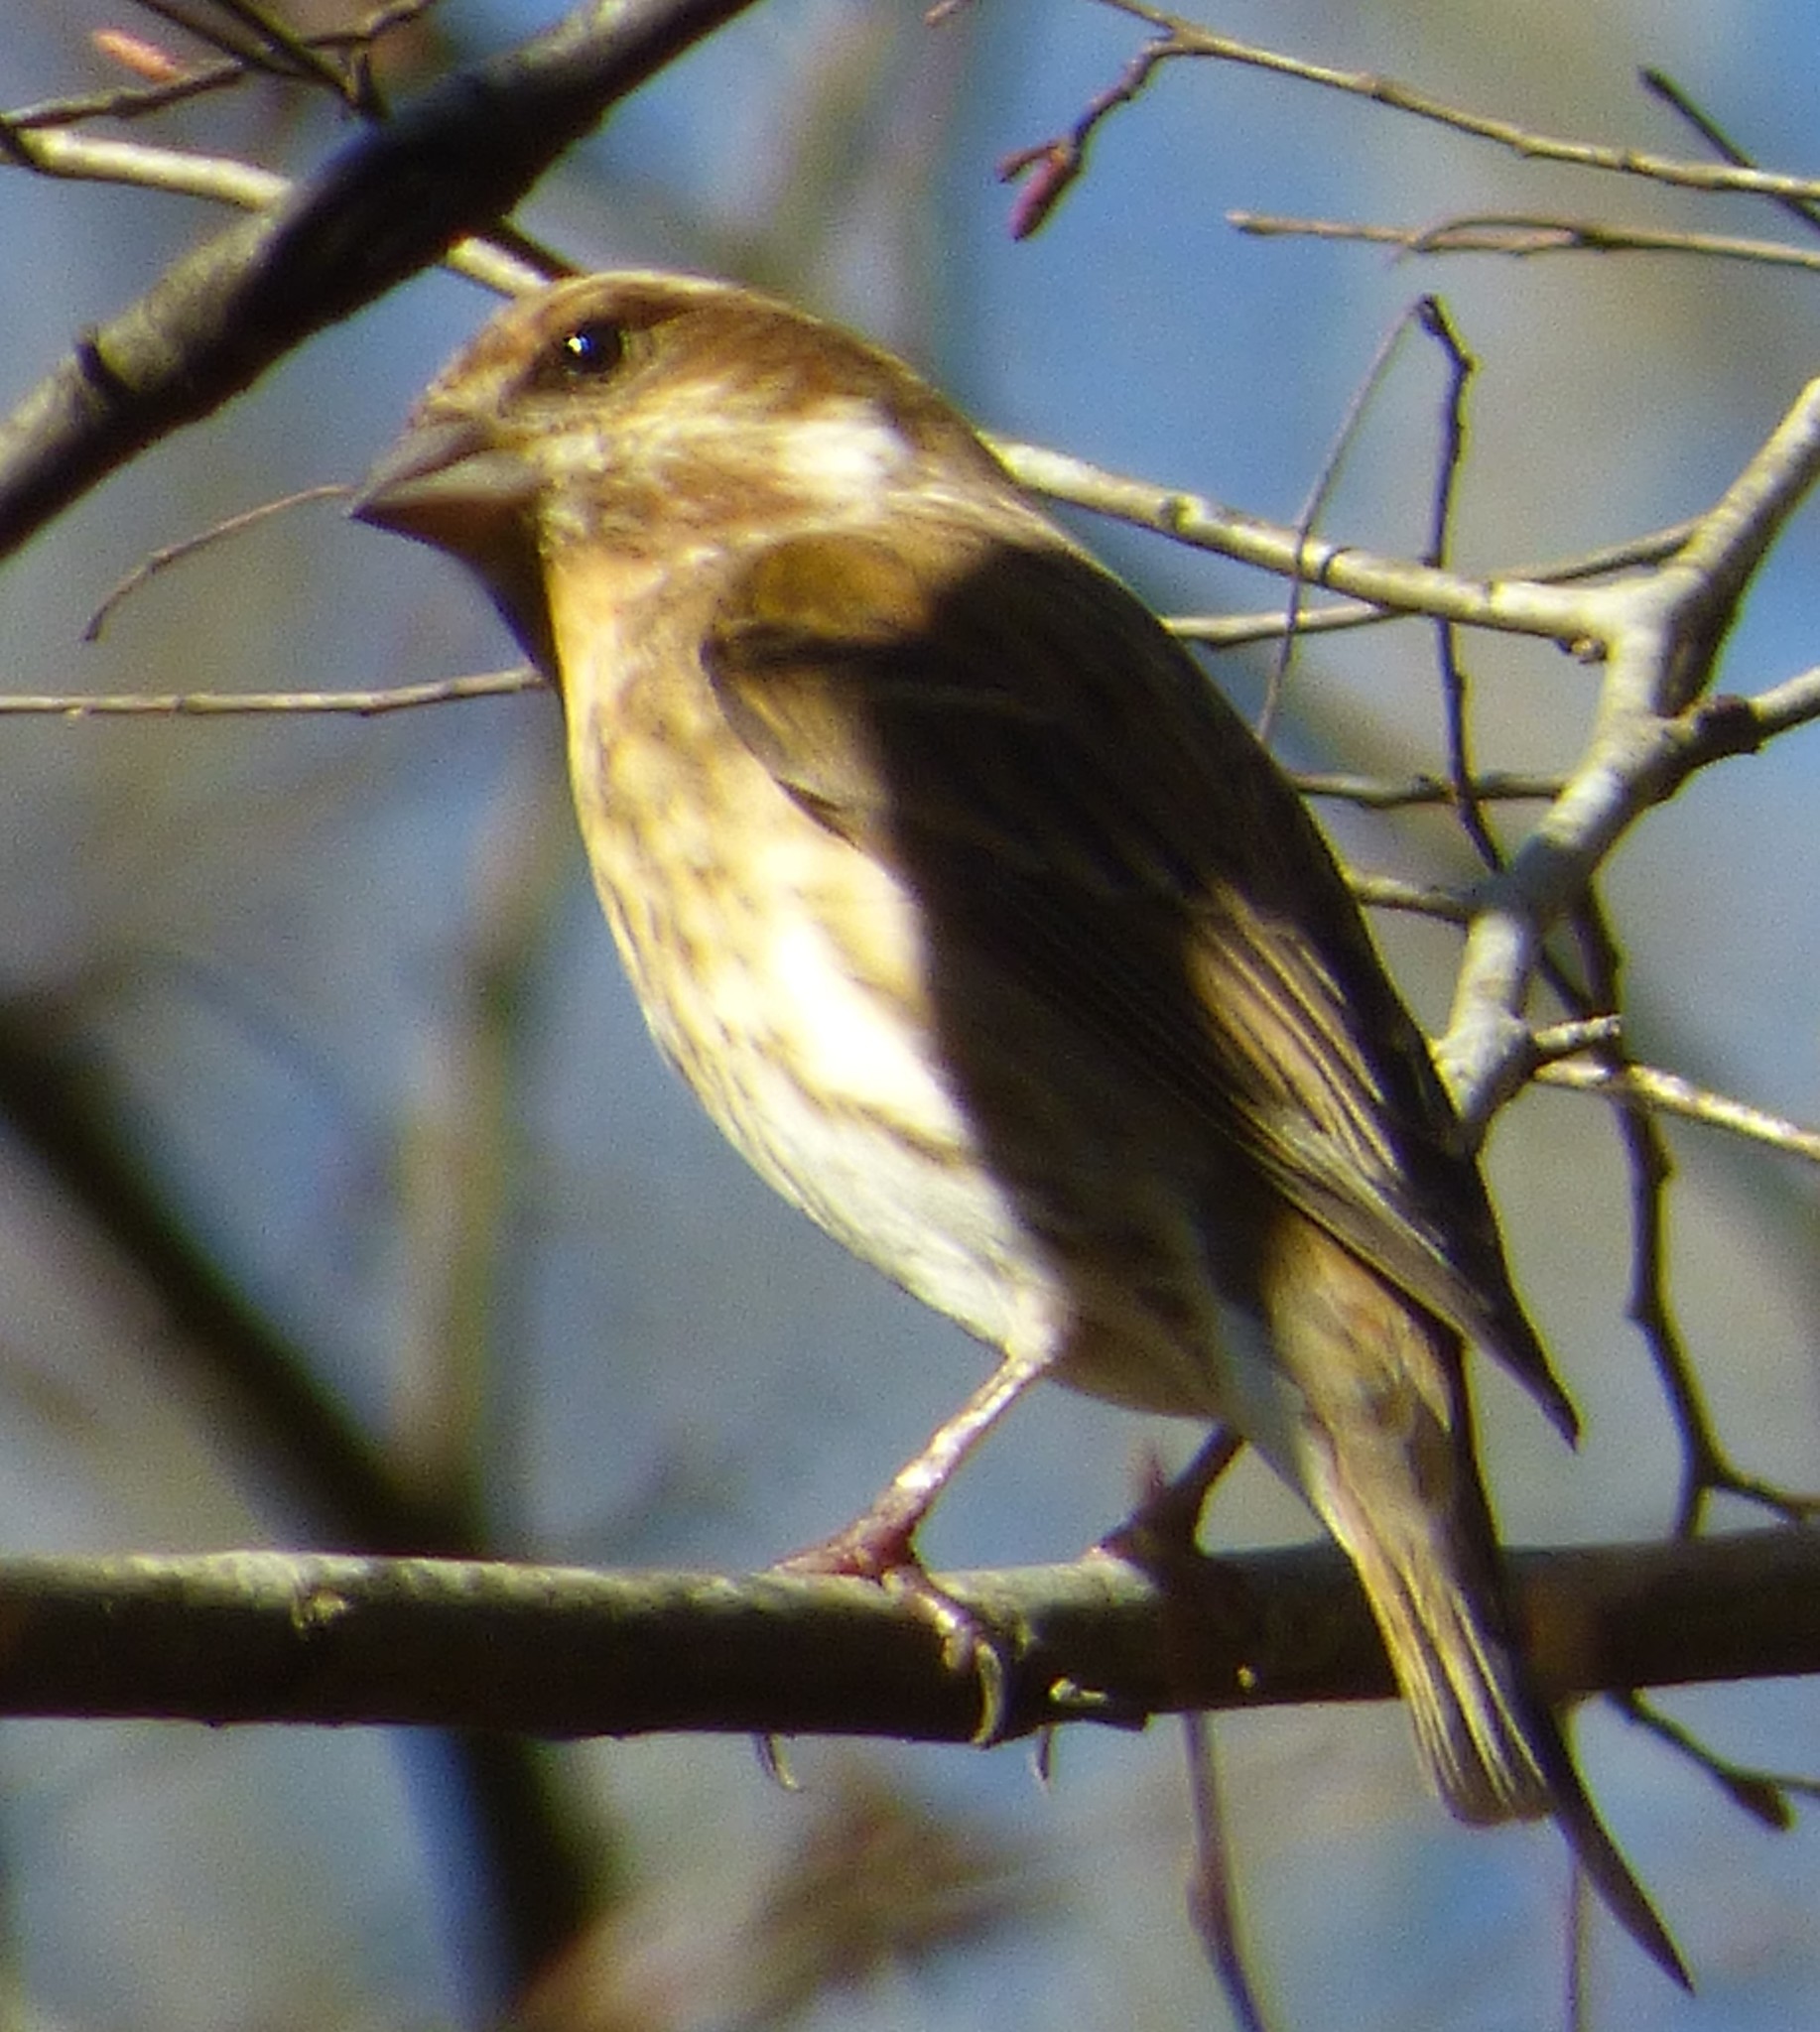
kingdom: Animalia
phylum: Chordata
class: Aves
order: Passeriformes
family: Fringillidae
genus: Haemorhous
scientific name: Haemorhous purpureus
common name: Purple finch
